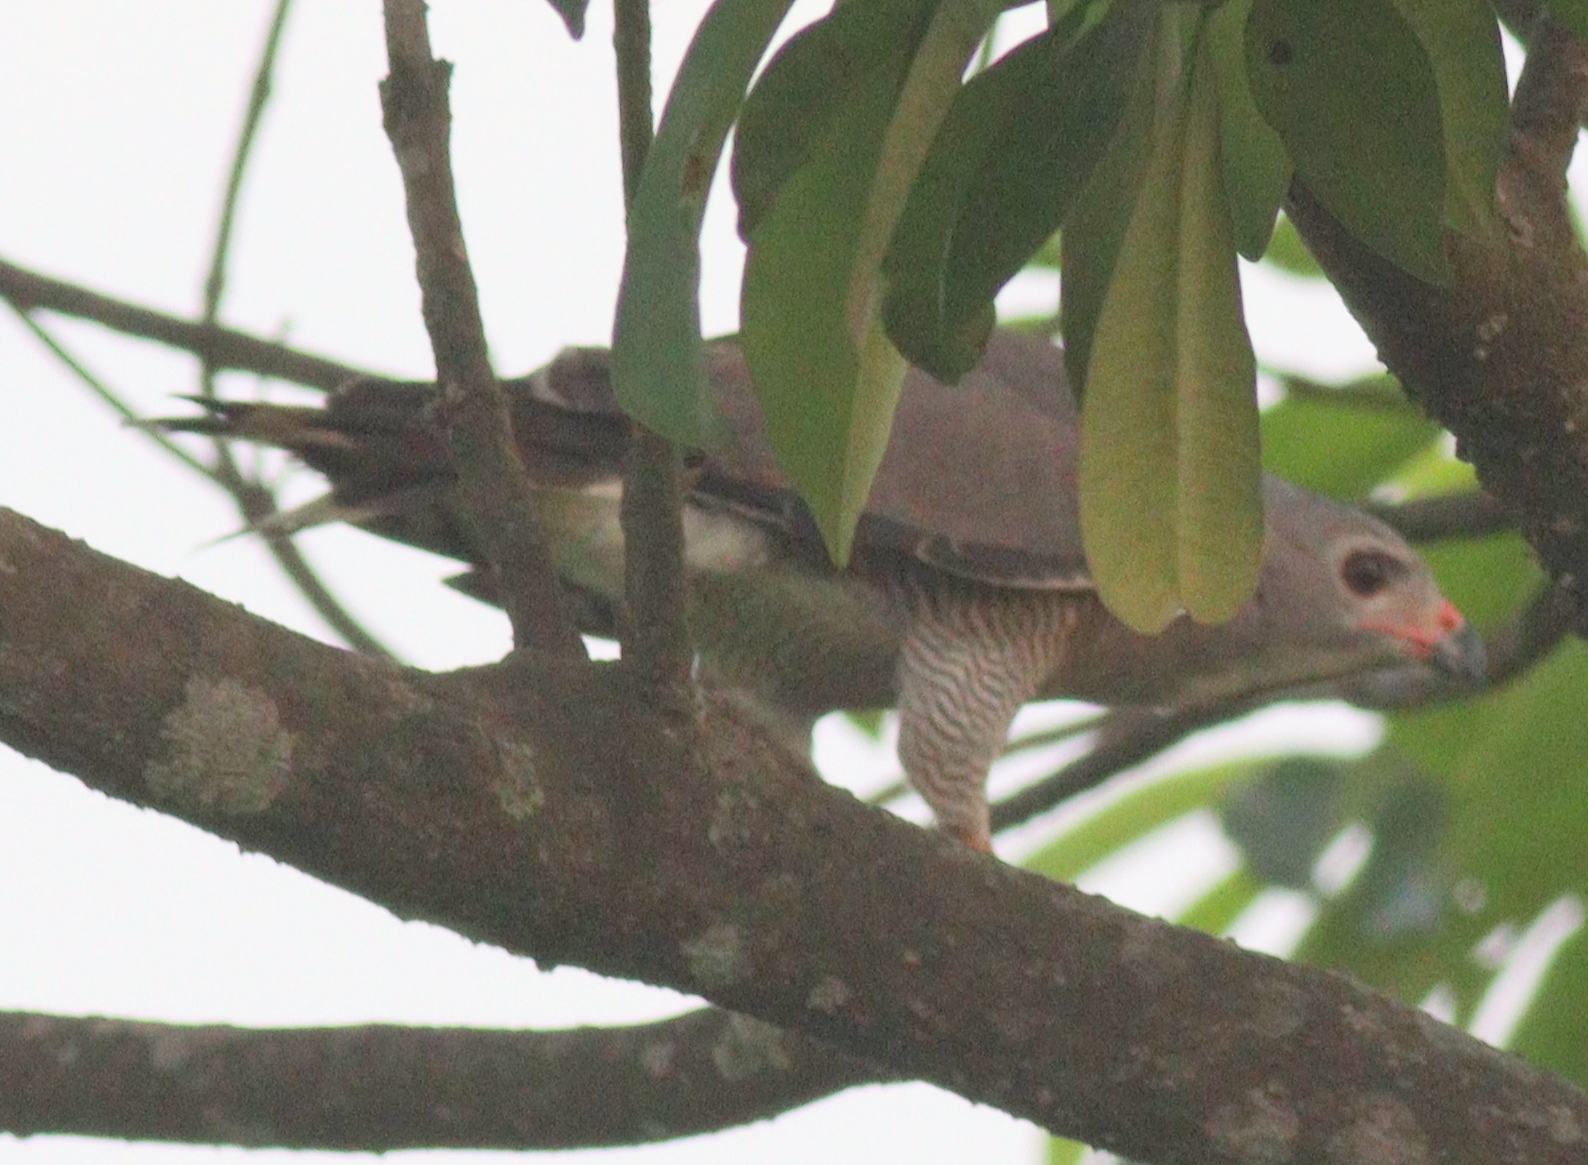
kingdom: Animalia
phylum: Chordata
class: Aves
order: Accipitriformes
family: Accipitridae
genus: Kaupifalco
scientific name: Kaupifalco monogrammicus
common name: Lizard buzzard
